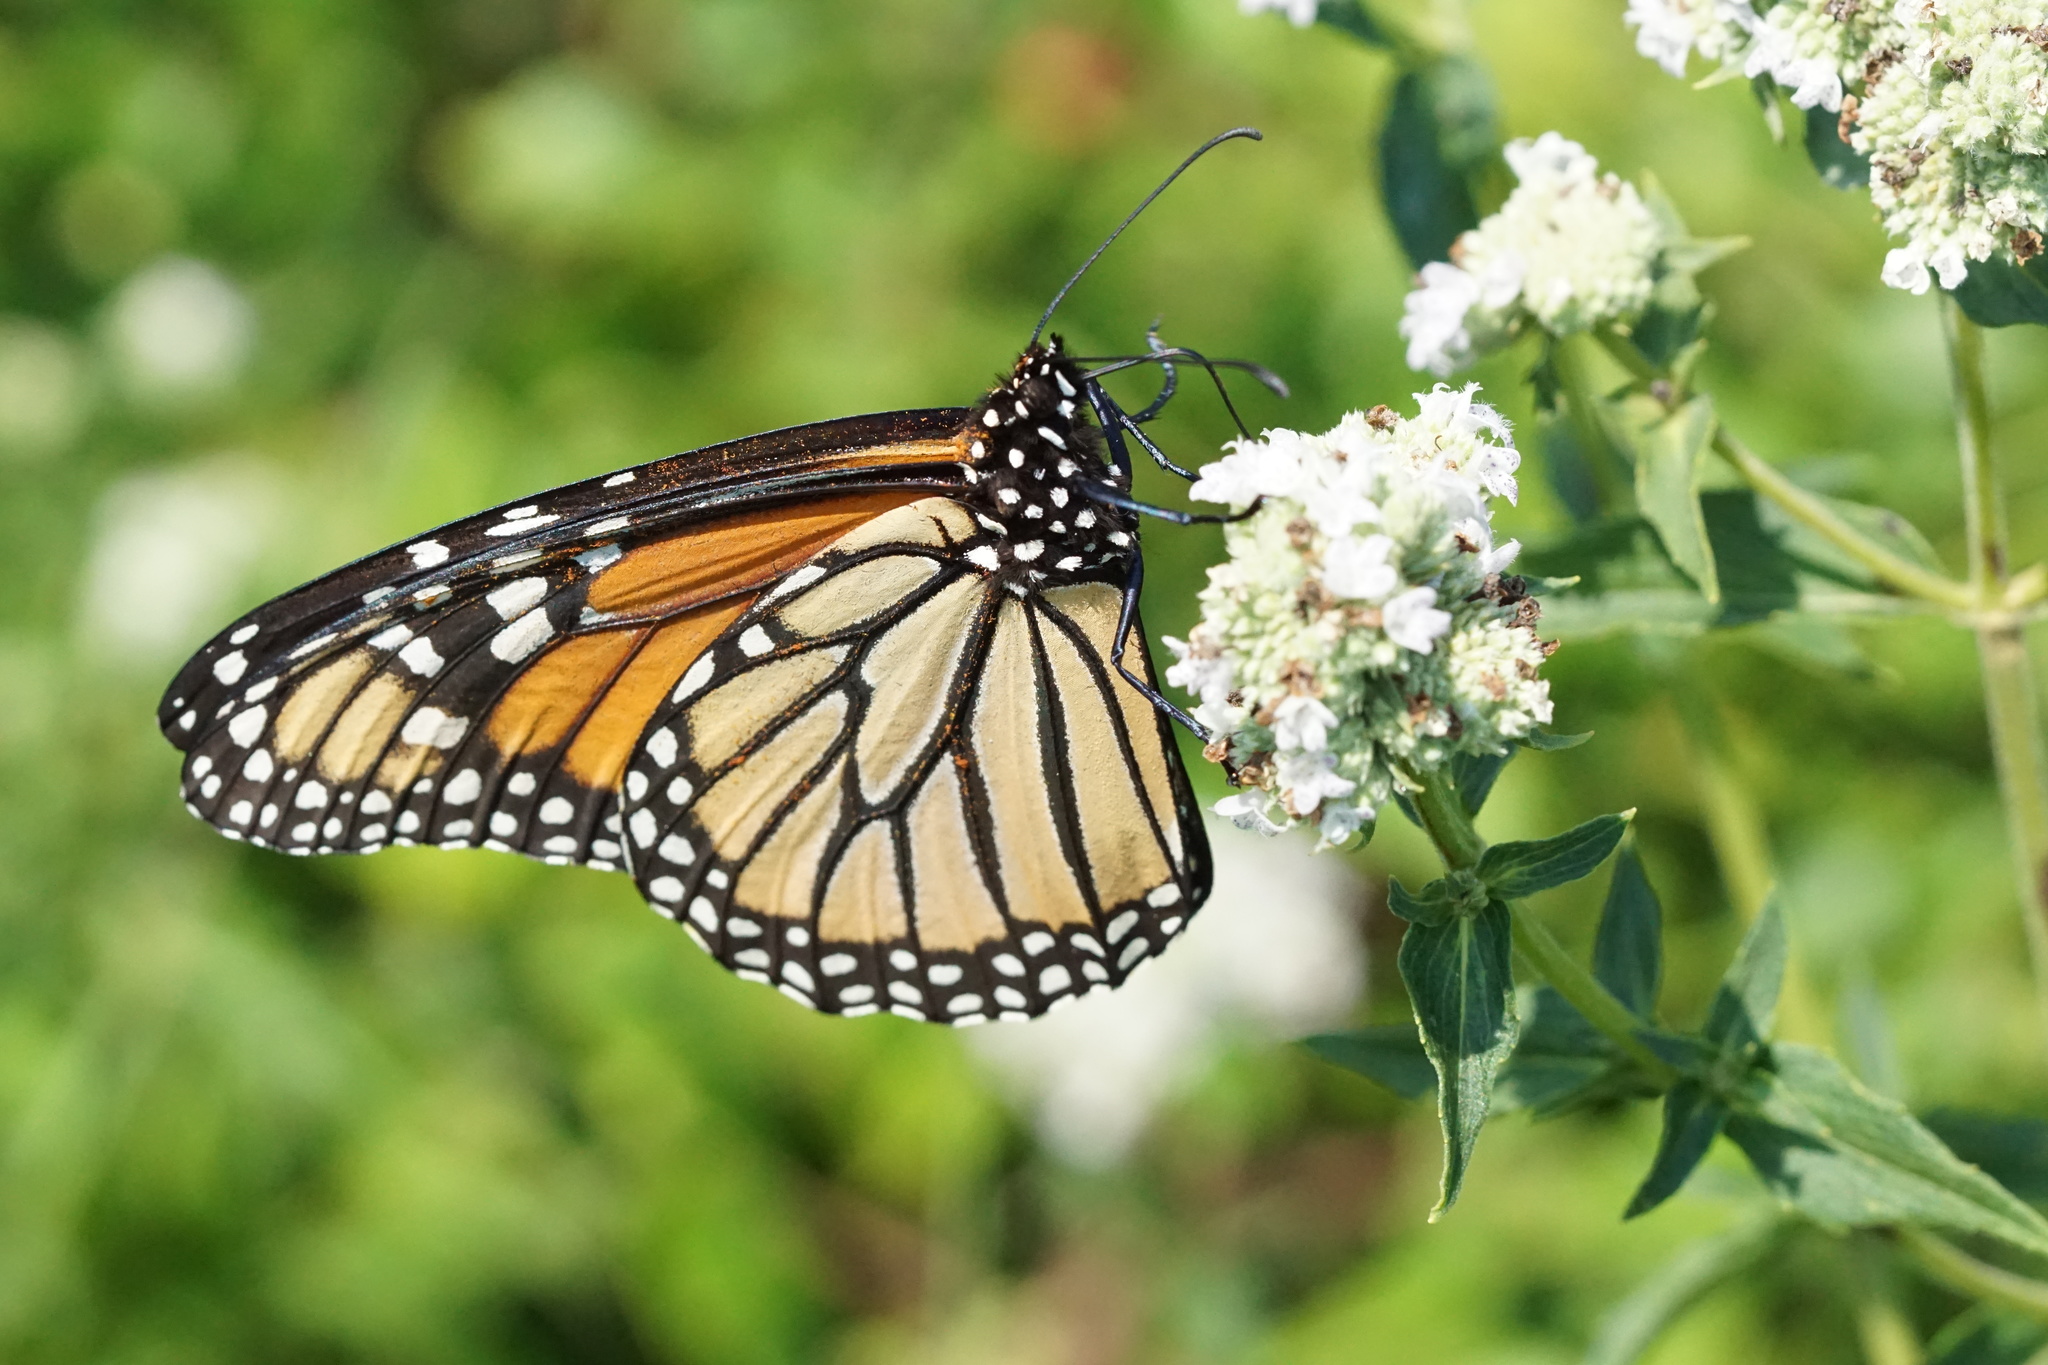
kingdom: Animalia
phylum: Arthropoda
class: Insecta
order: Lepidoptera
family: Nymphalidae
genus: Danaus
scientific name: Danaus plexippus
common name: Monarch
